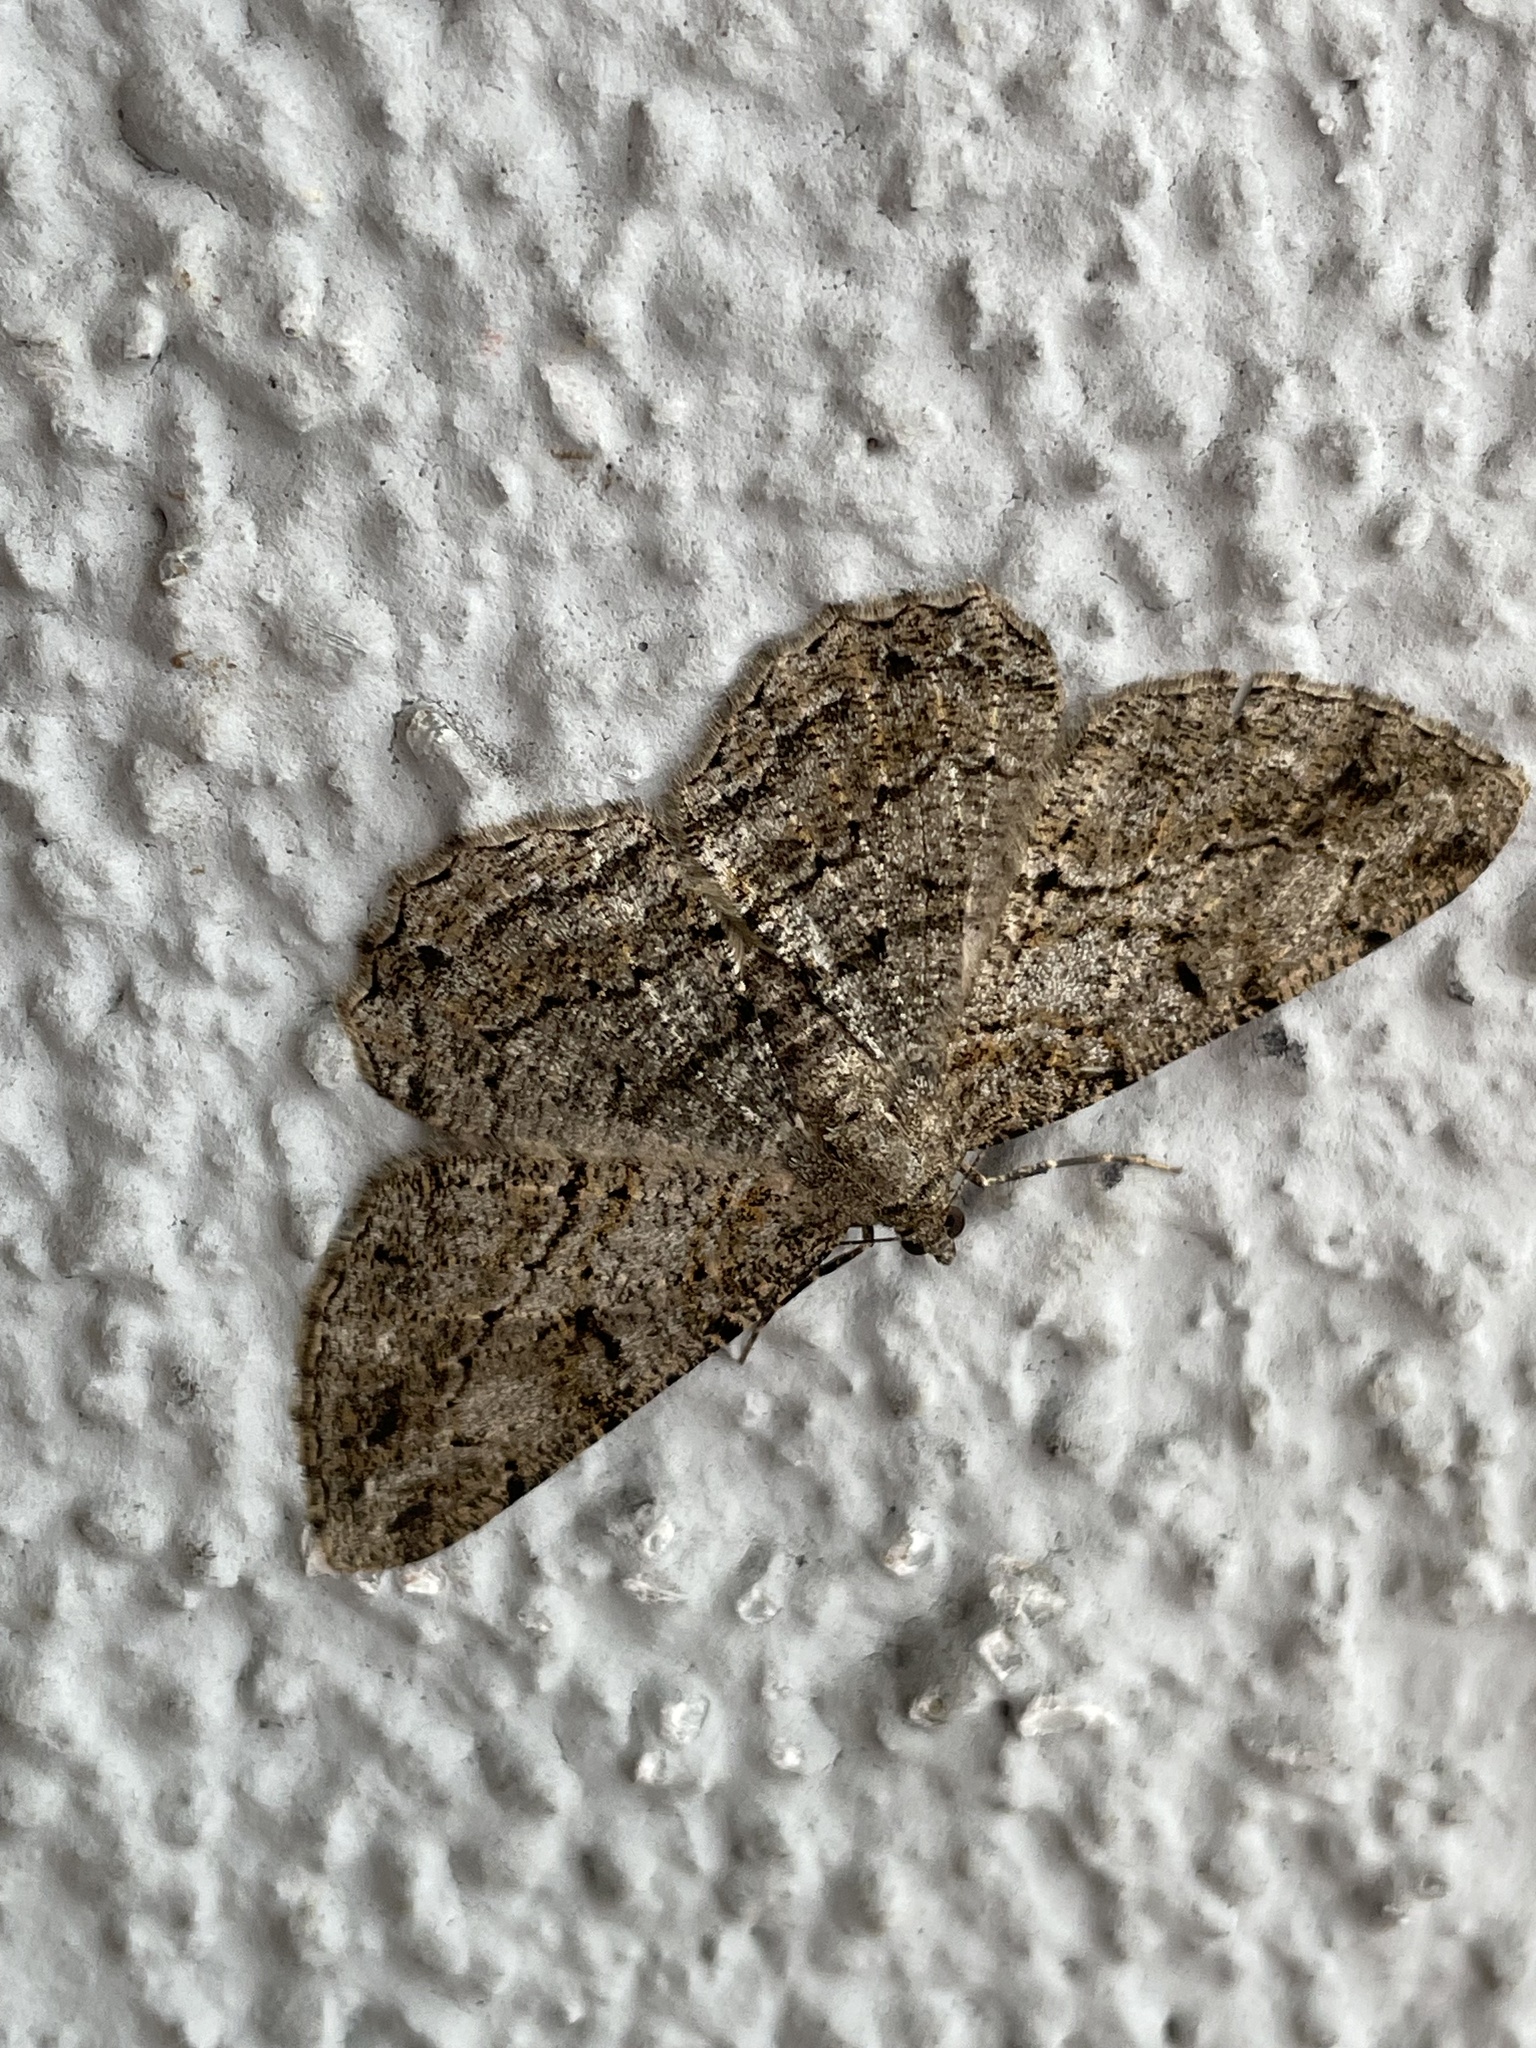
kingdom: Animalia
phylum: Arthropoda
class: Insecta
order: Lepidoptera
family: Geometridae
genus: Peribatodes
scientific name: Peribatodes rhomboidaria
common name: Willow beauty
